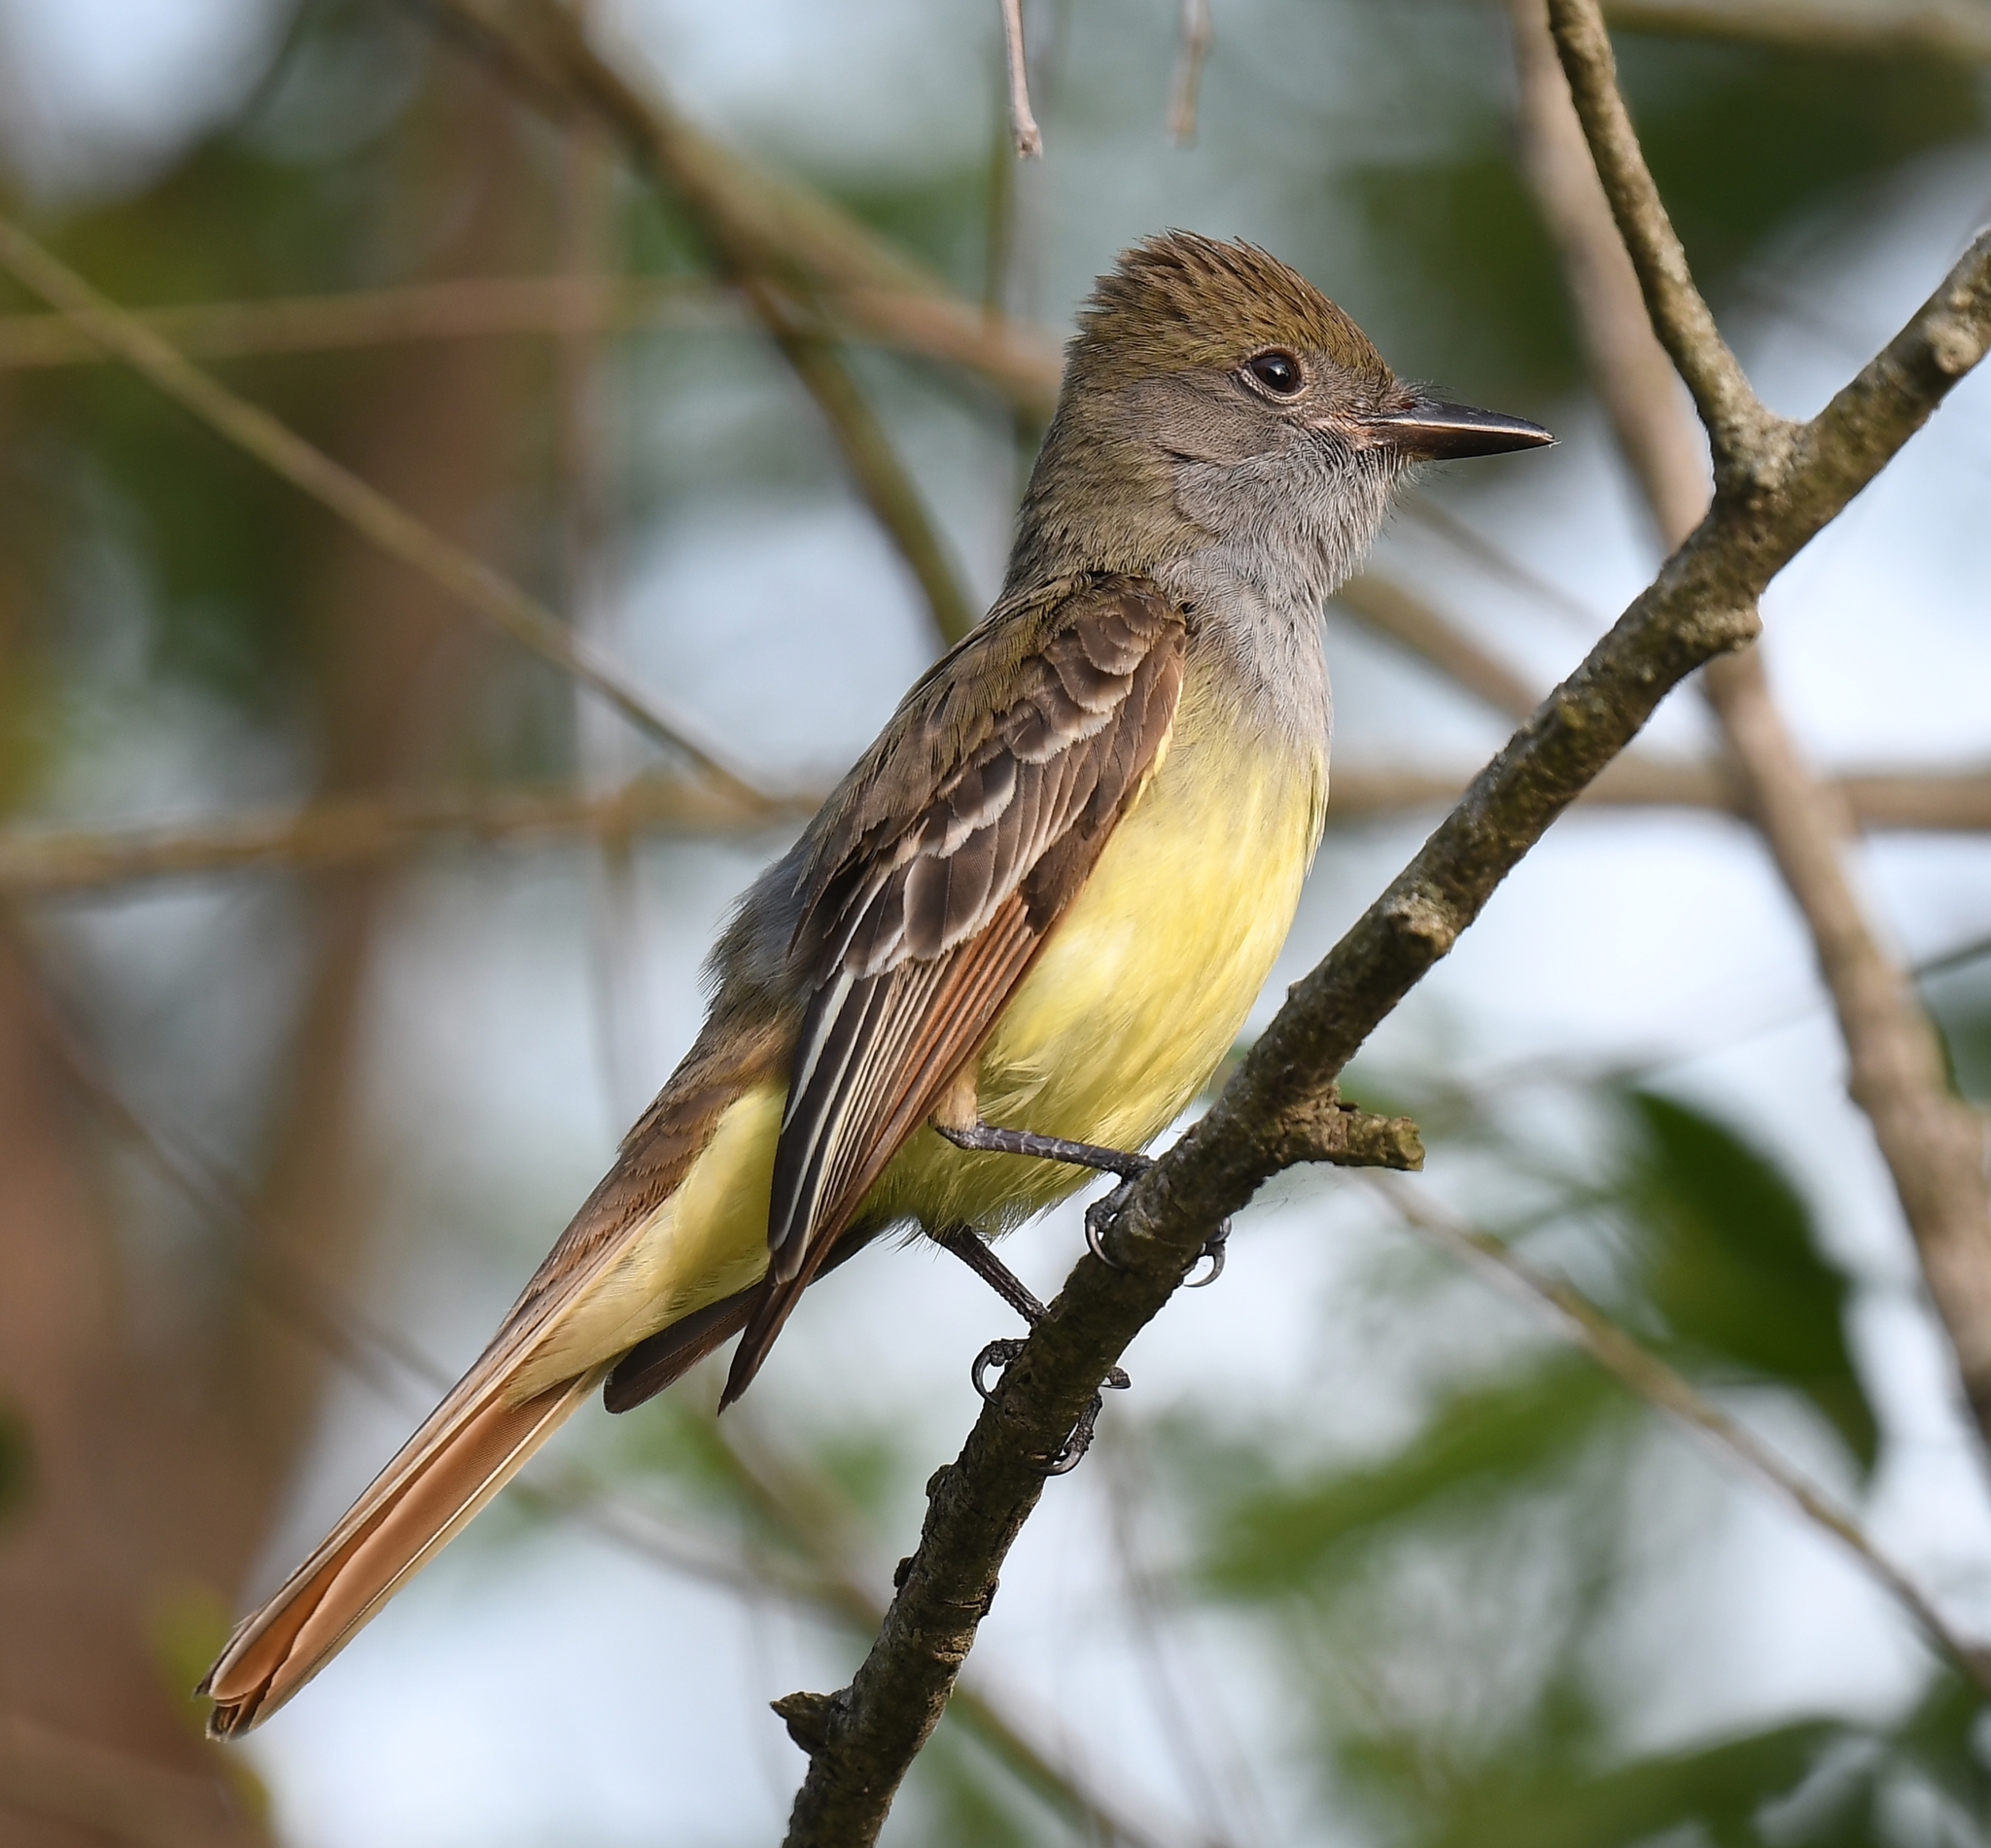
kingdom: Animalia
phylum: Chordata
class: Aves
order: Passeriformes
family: Tyrannidae
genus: Myiarchus
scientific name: Myiarchus crinitus
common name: Great crested flycatcher
